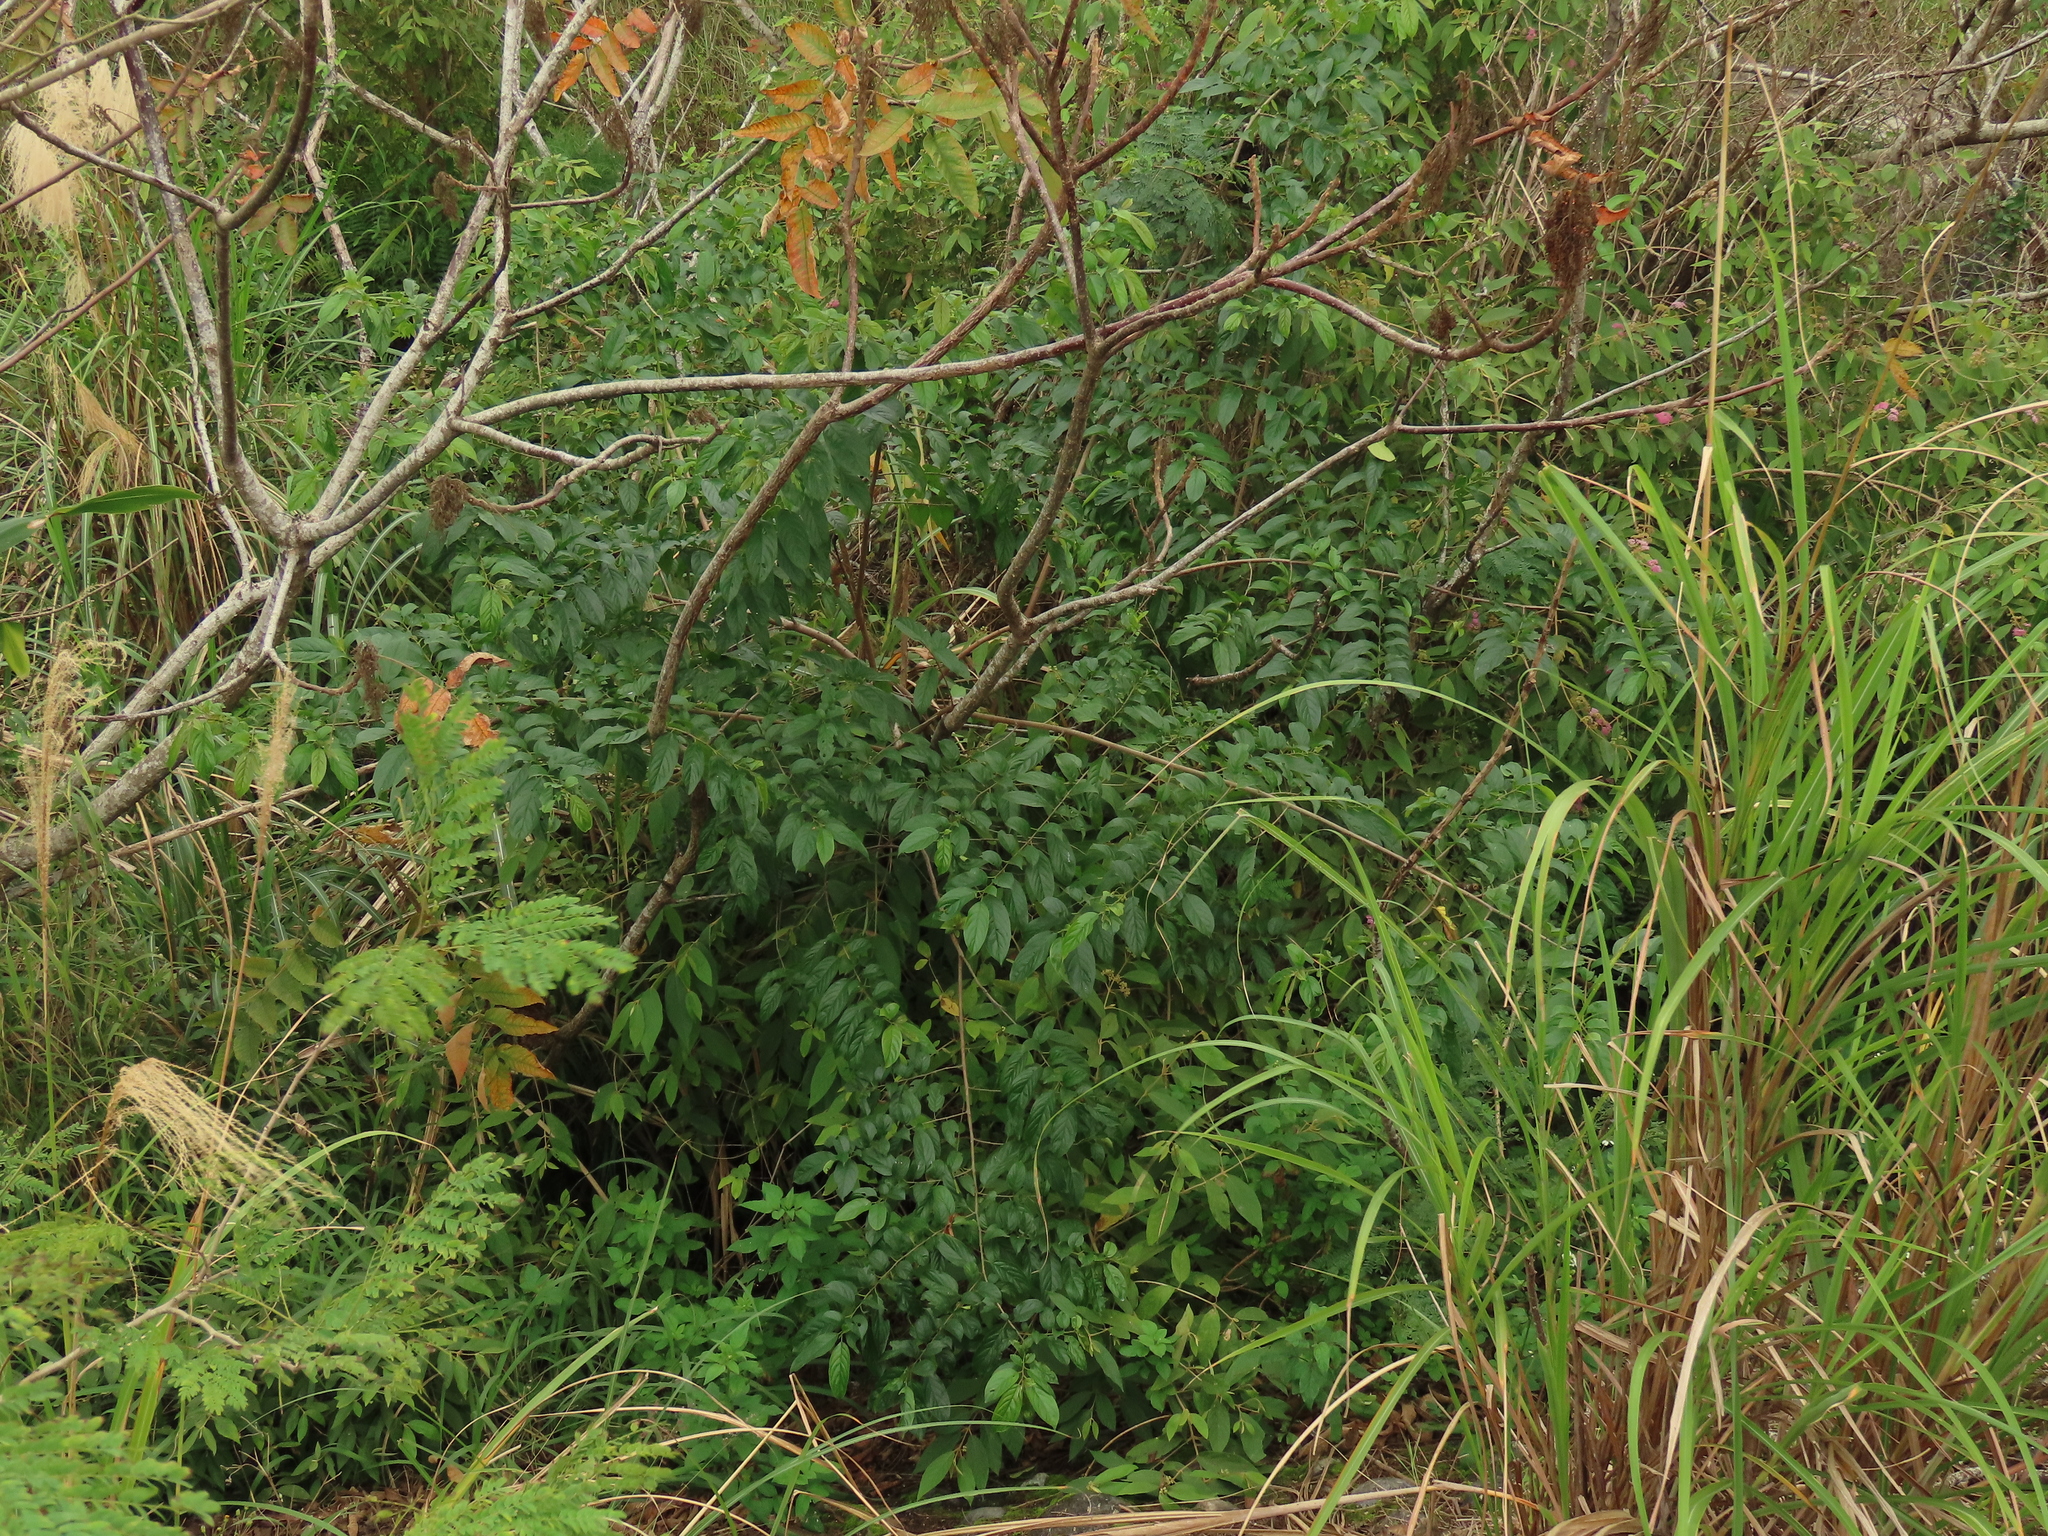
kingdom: Plantae
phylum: Tracheophyta
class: Magnoliopsida
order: Rosales
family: Rhamnaceae
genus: Rhamnus
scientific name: Rhamnus formosana
